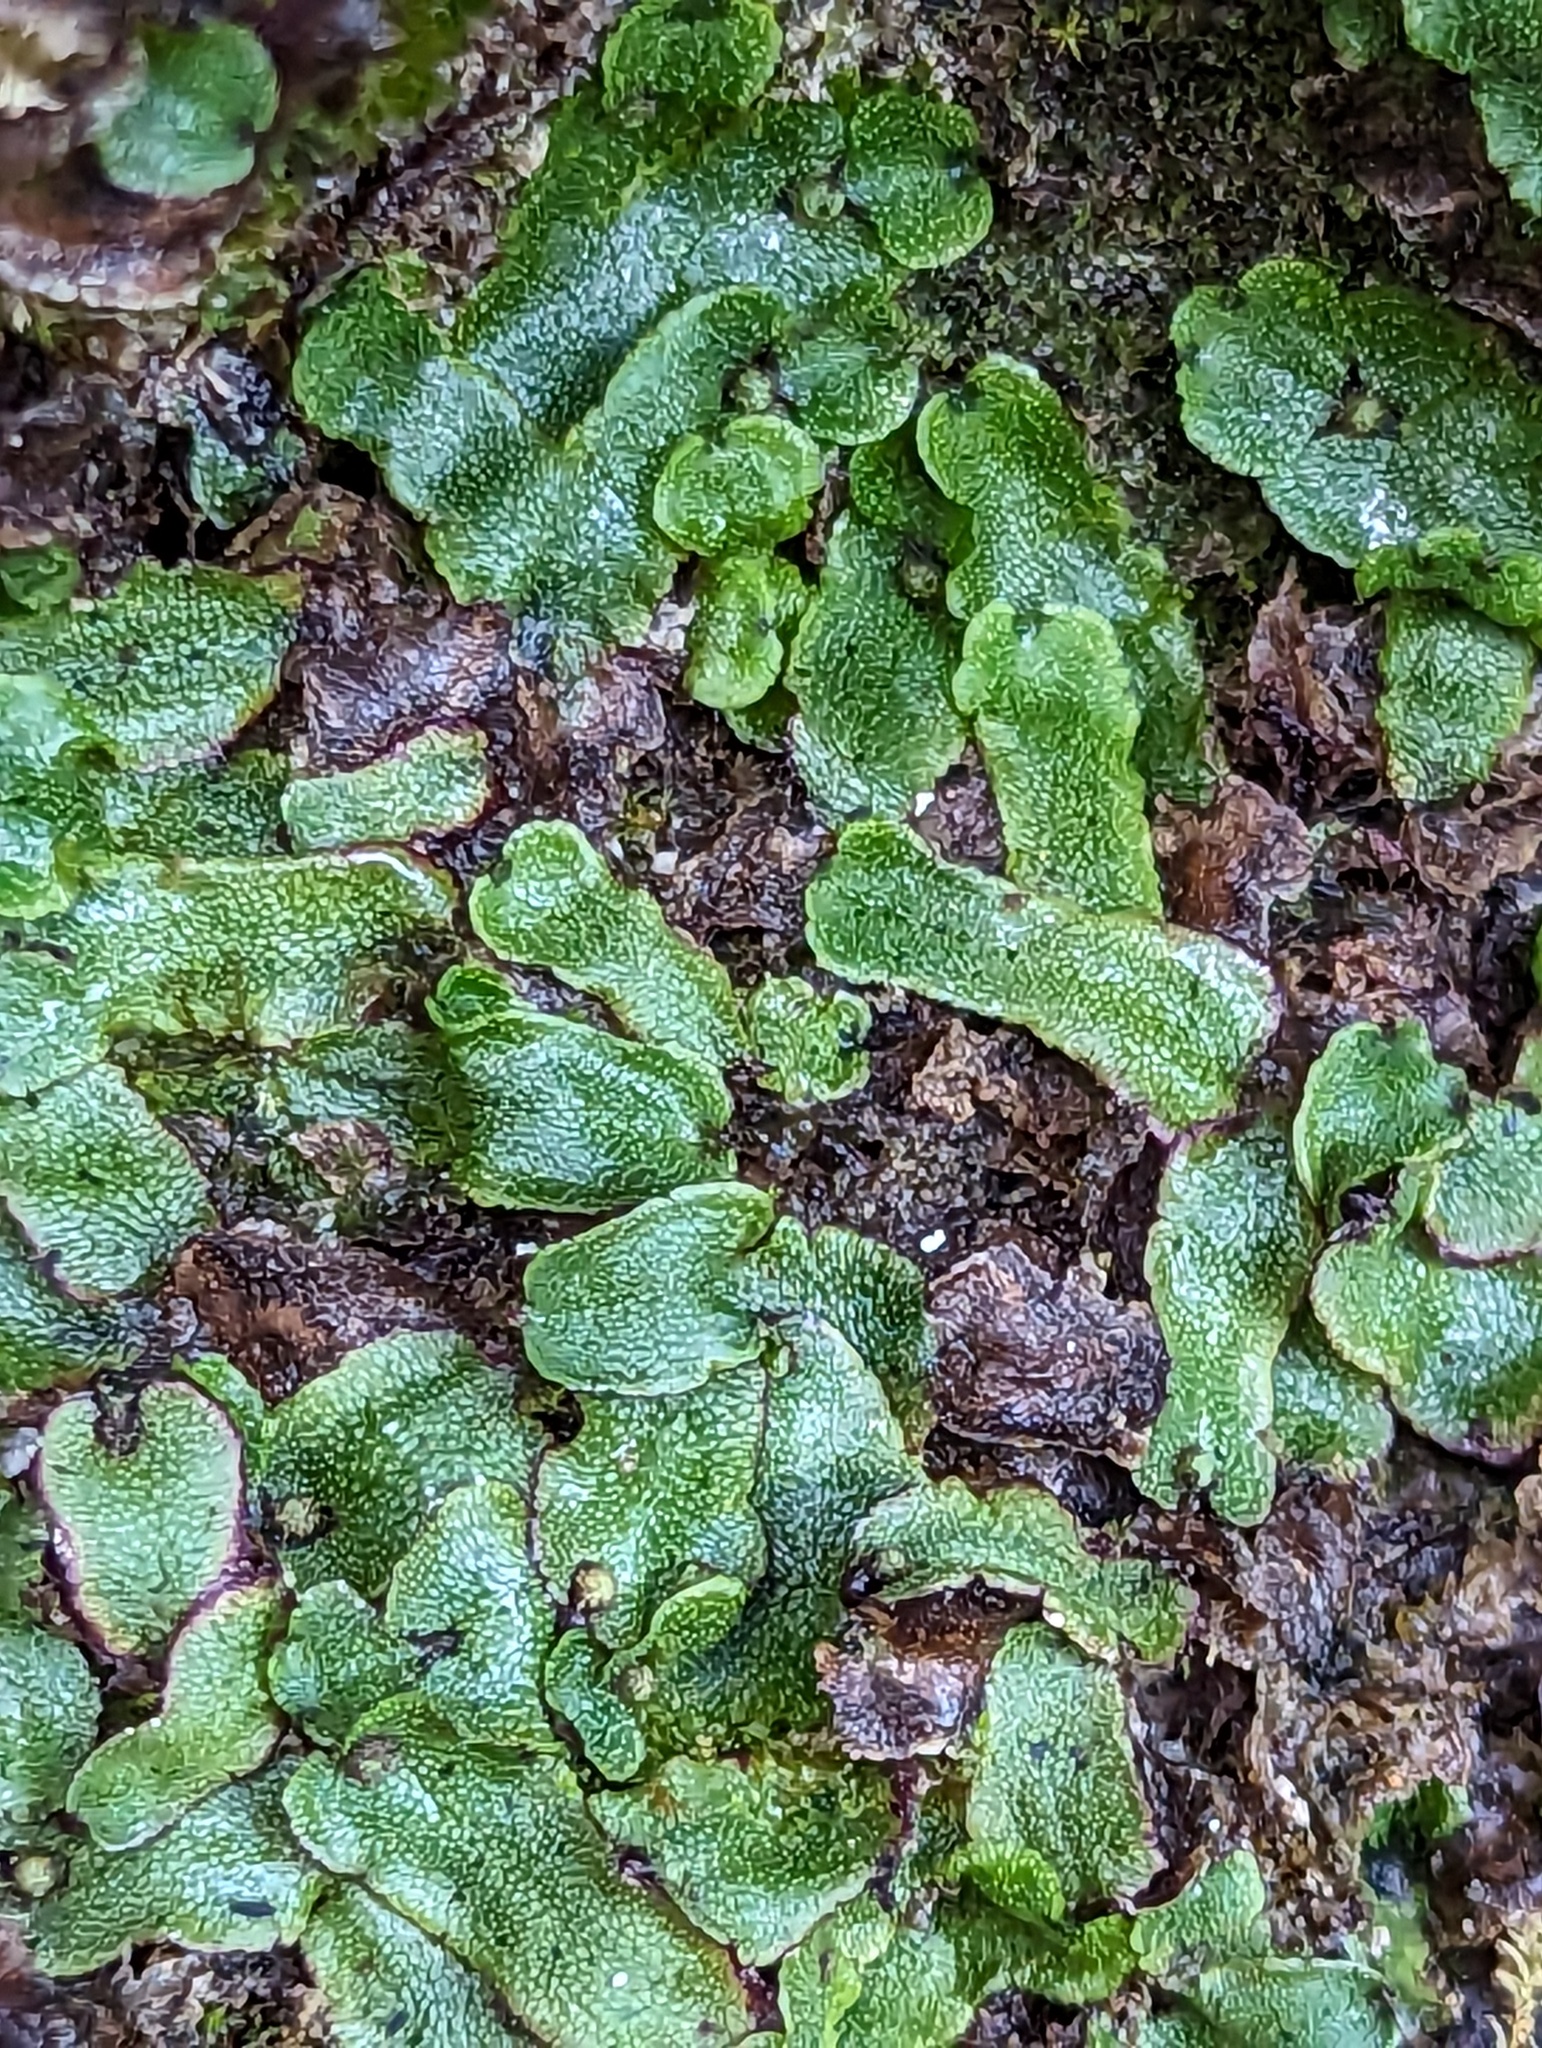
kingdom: Plantae
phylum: Marchantiophyta
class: Marchantiopsida
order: Marchantiales
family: Marchantiaceae
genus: Marchantia
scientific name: Marchantia quadrata
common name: Narrow mushroom-headed liverwort
